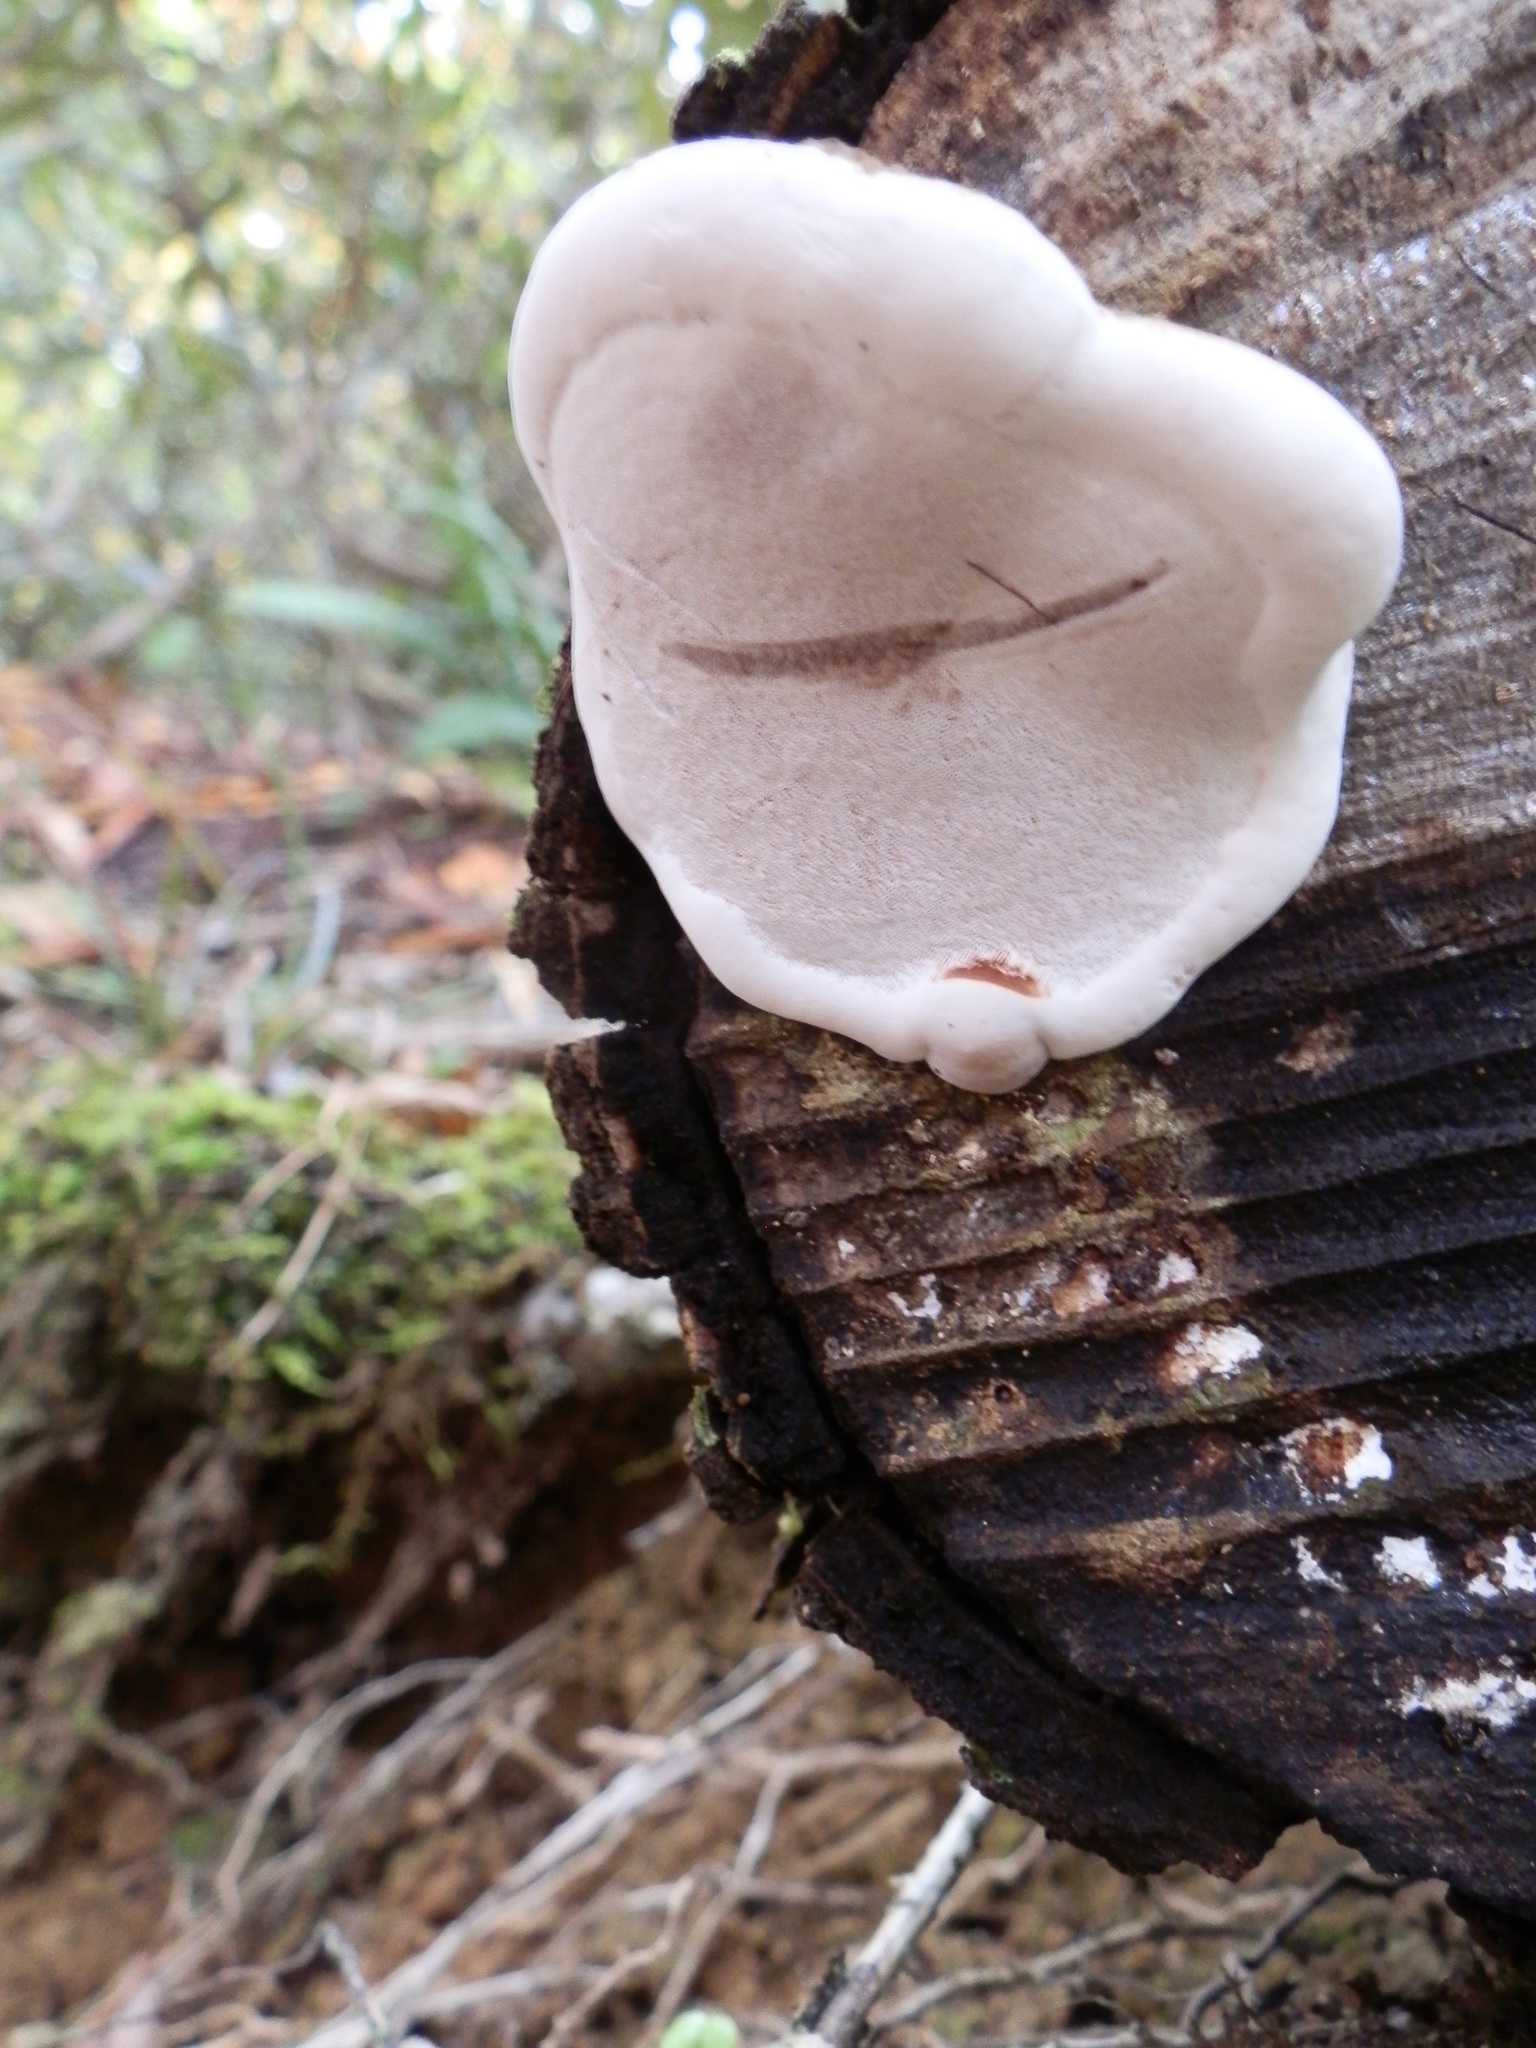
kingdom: Fungi
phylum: Basidiomycota
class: Agaricomycetes
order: Polyporales
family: Polyporaceae
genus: Ganoderma
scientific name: Ganoderma applanatum
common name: Artist's bracket
